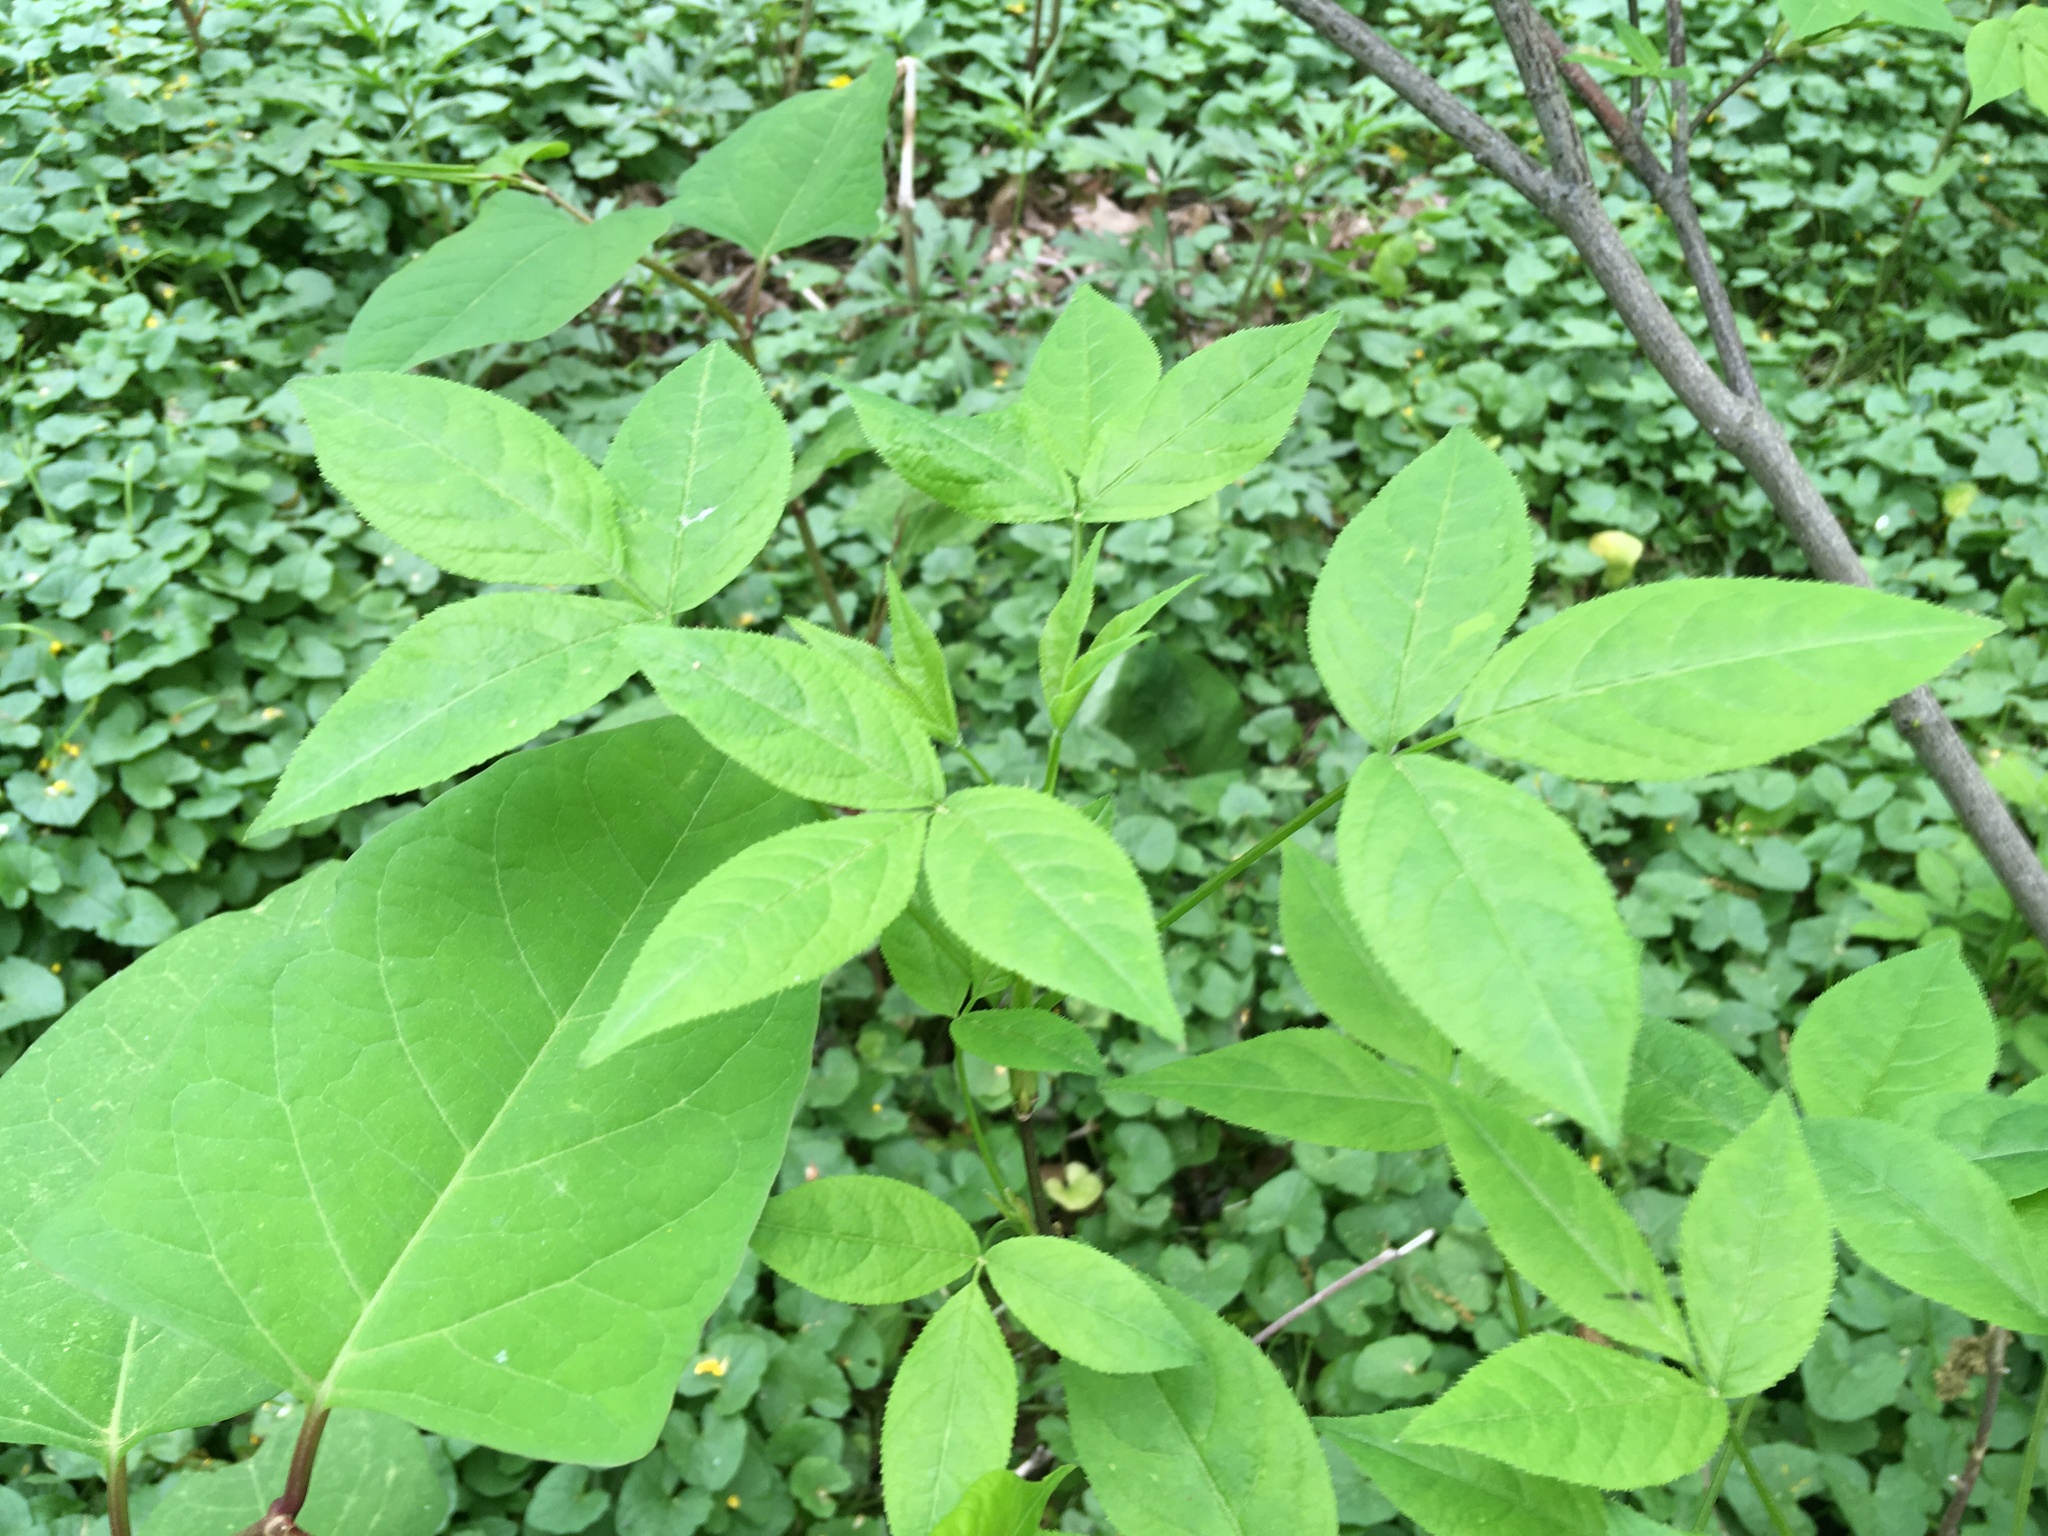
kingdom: Plantae
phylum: Tracheophyta
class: Magnoliopsida
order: Crossosomatales
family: Staphyleaceae
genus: Staphylea
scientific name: Staphylea trifolia
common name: American bladdernut
